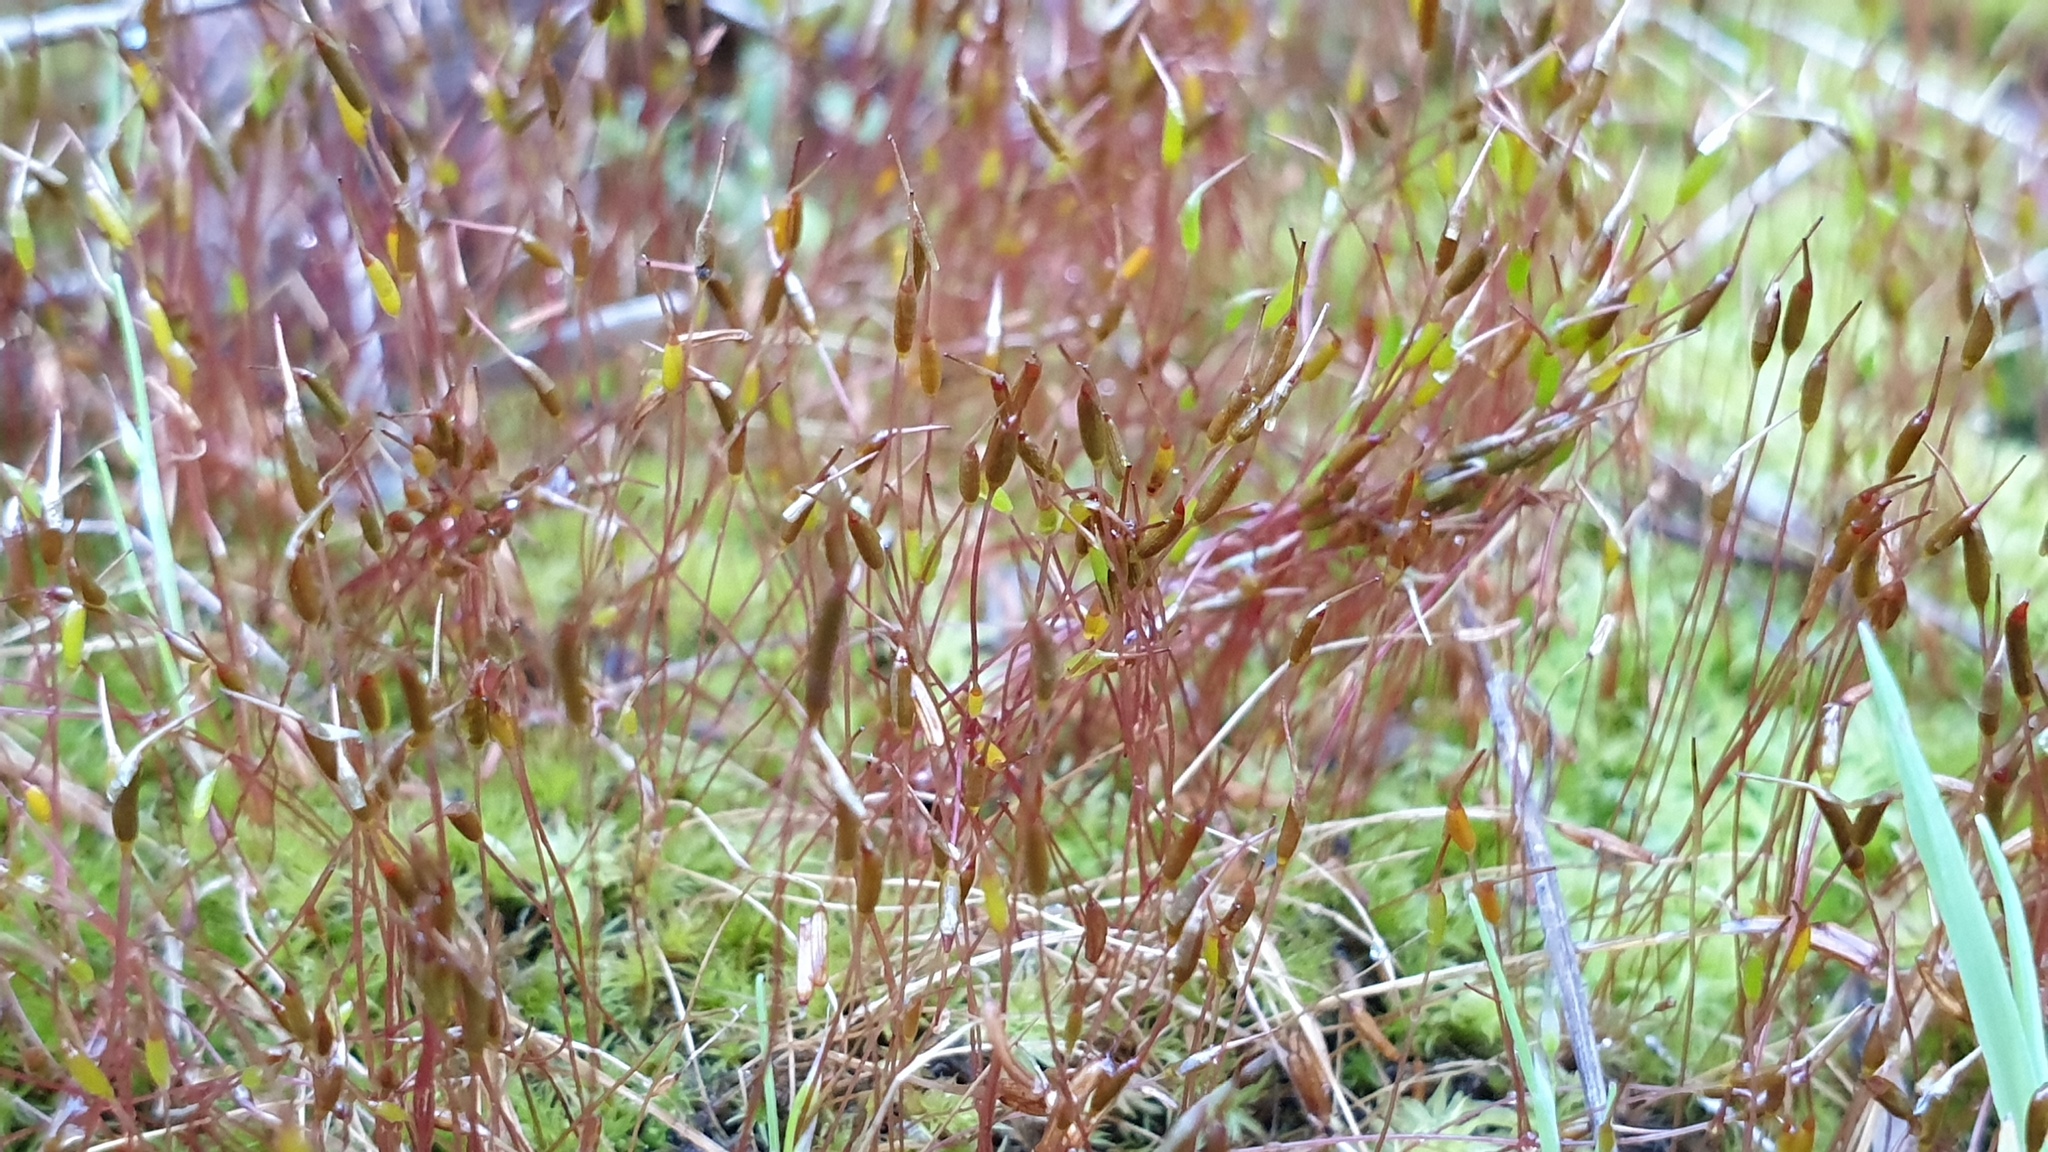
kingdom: Plantae
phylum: Bryophyta
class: Bryopsida
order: Dicranales
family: Ditrichaceae
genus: Ceratodon
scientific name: Ceratodon purpureus
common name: Redshank
